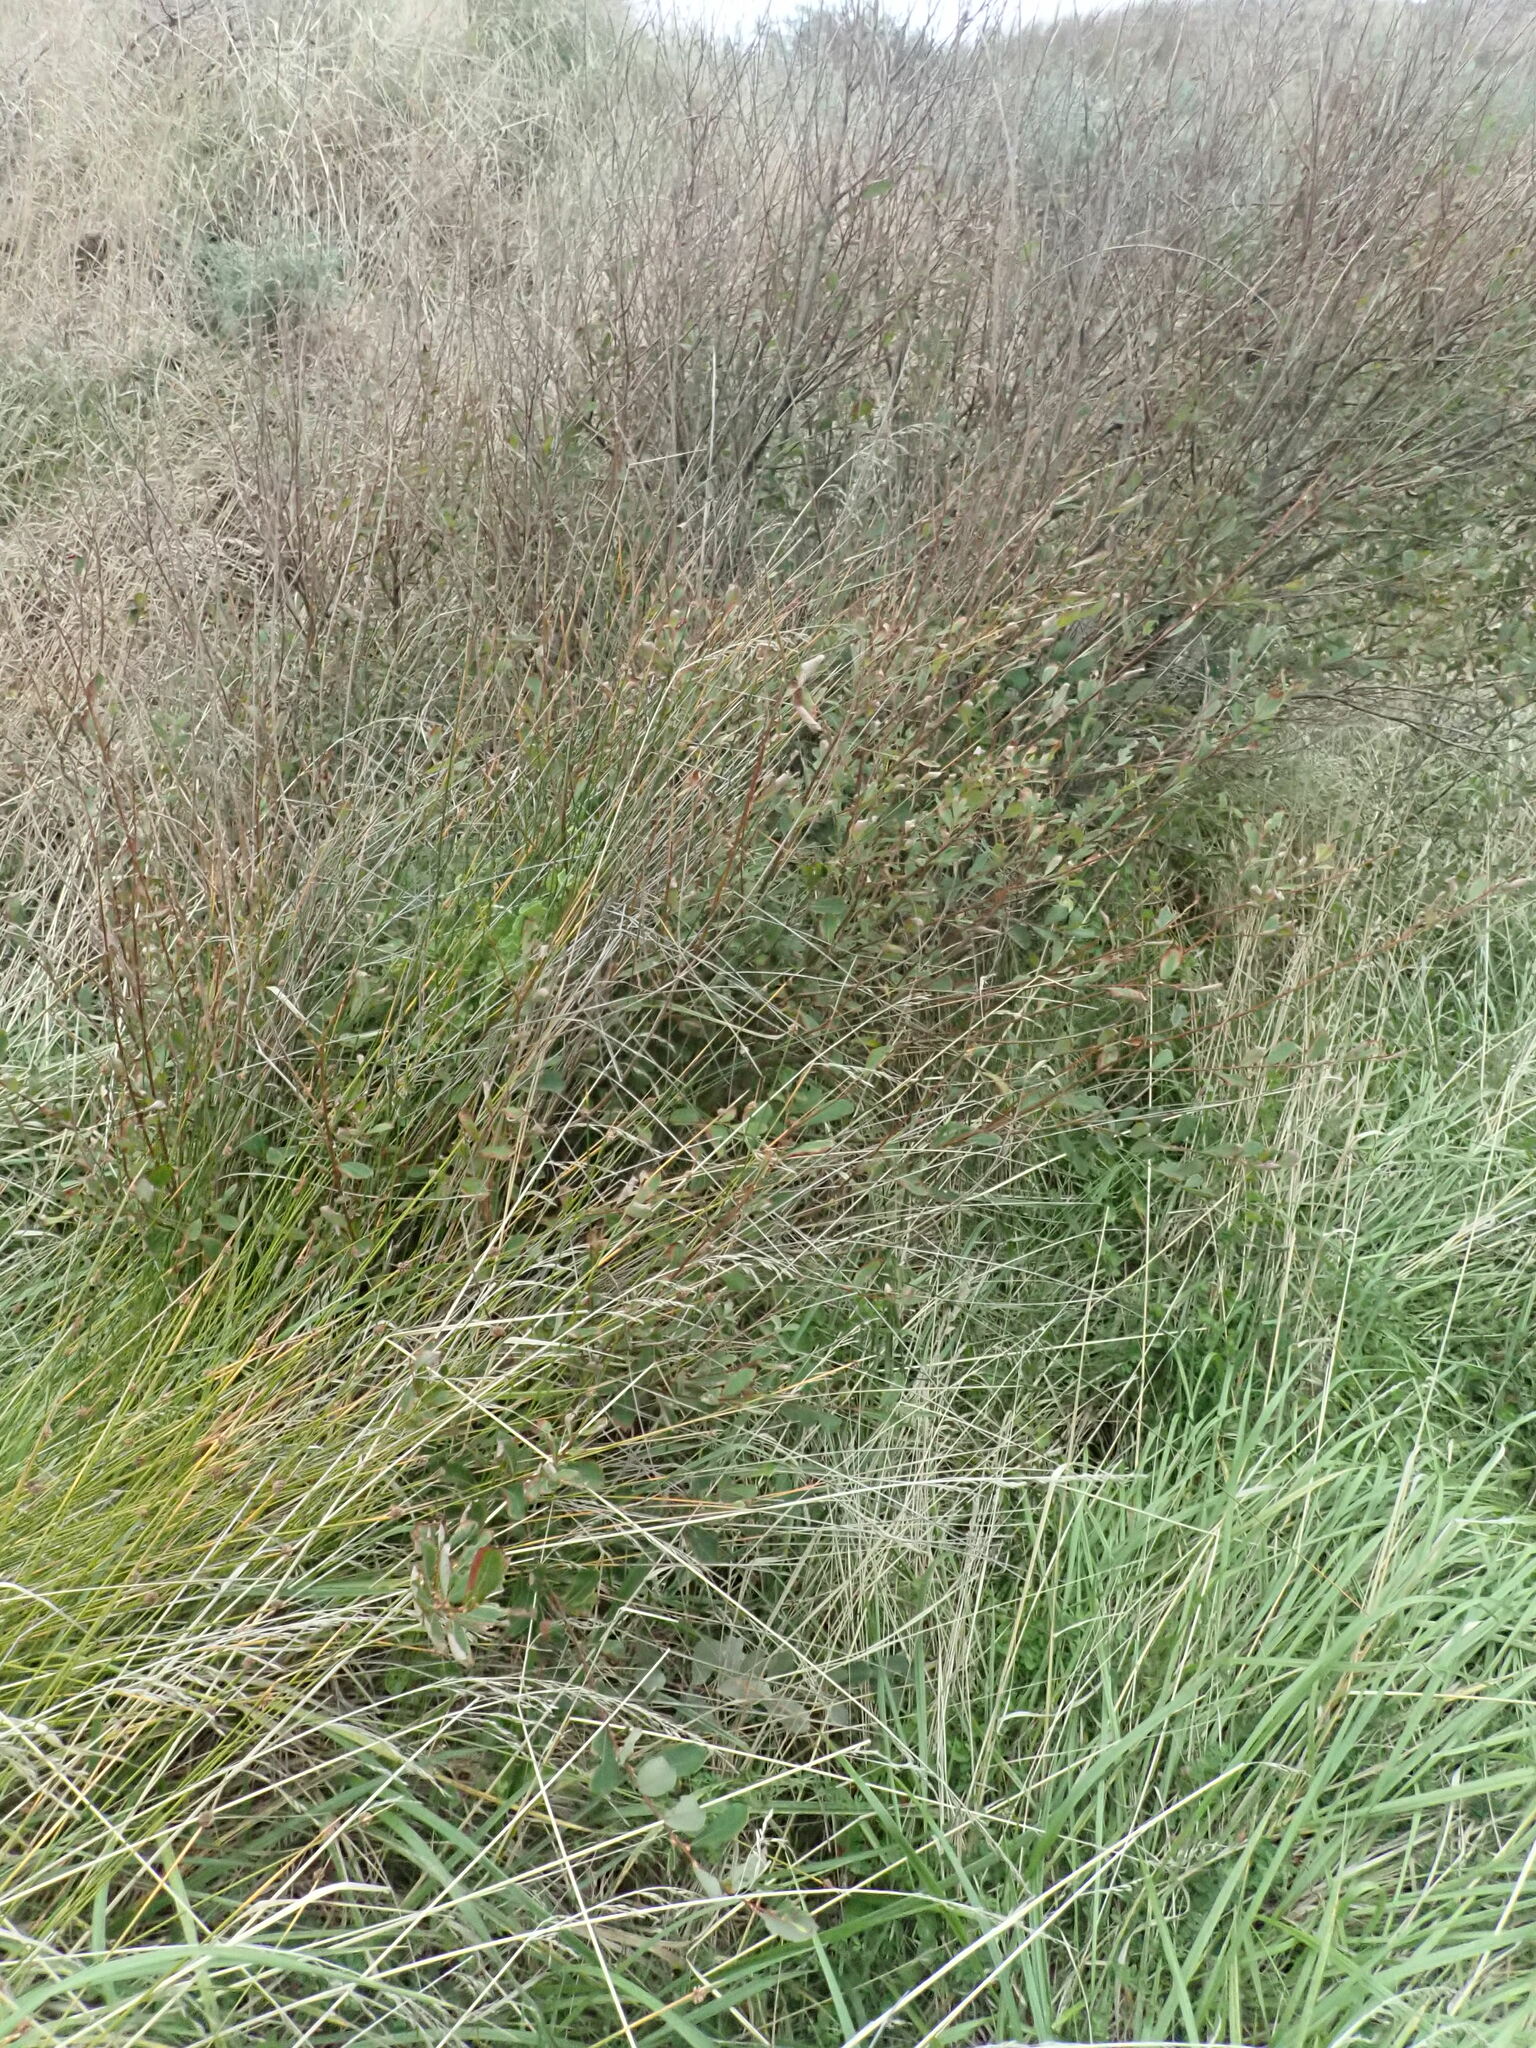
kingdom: Plantae
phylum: Tracheophyta
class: Magnoliopsida
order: Malpighiales
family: Salicaceae
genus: Salix
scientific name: Salix cinerea
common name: Common sallow
